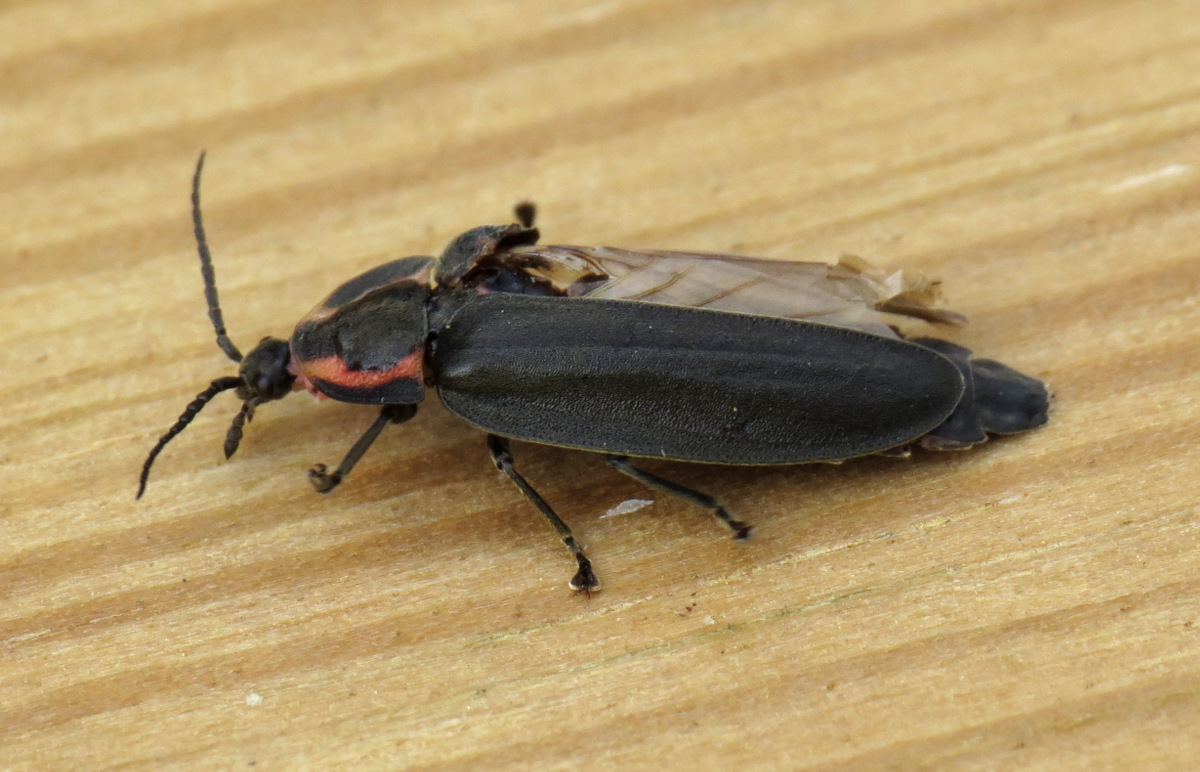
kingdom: Animalia
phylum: Arthropoda
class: Insecta
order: Coleoptera
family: Lampyridae
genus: Photinus
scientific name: Photinus corrusca
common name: Winter firefly
